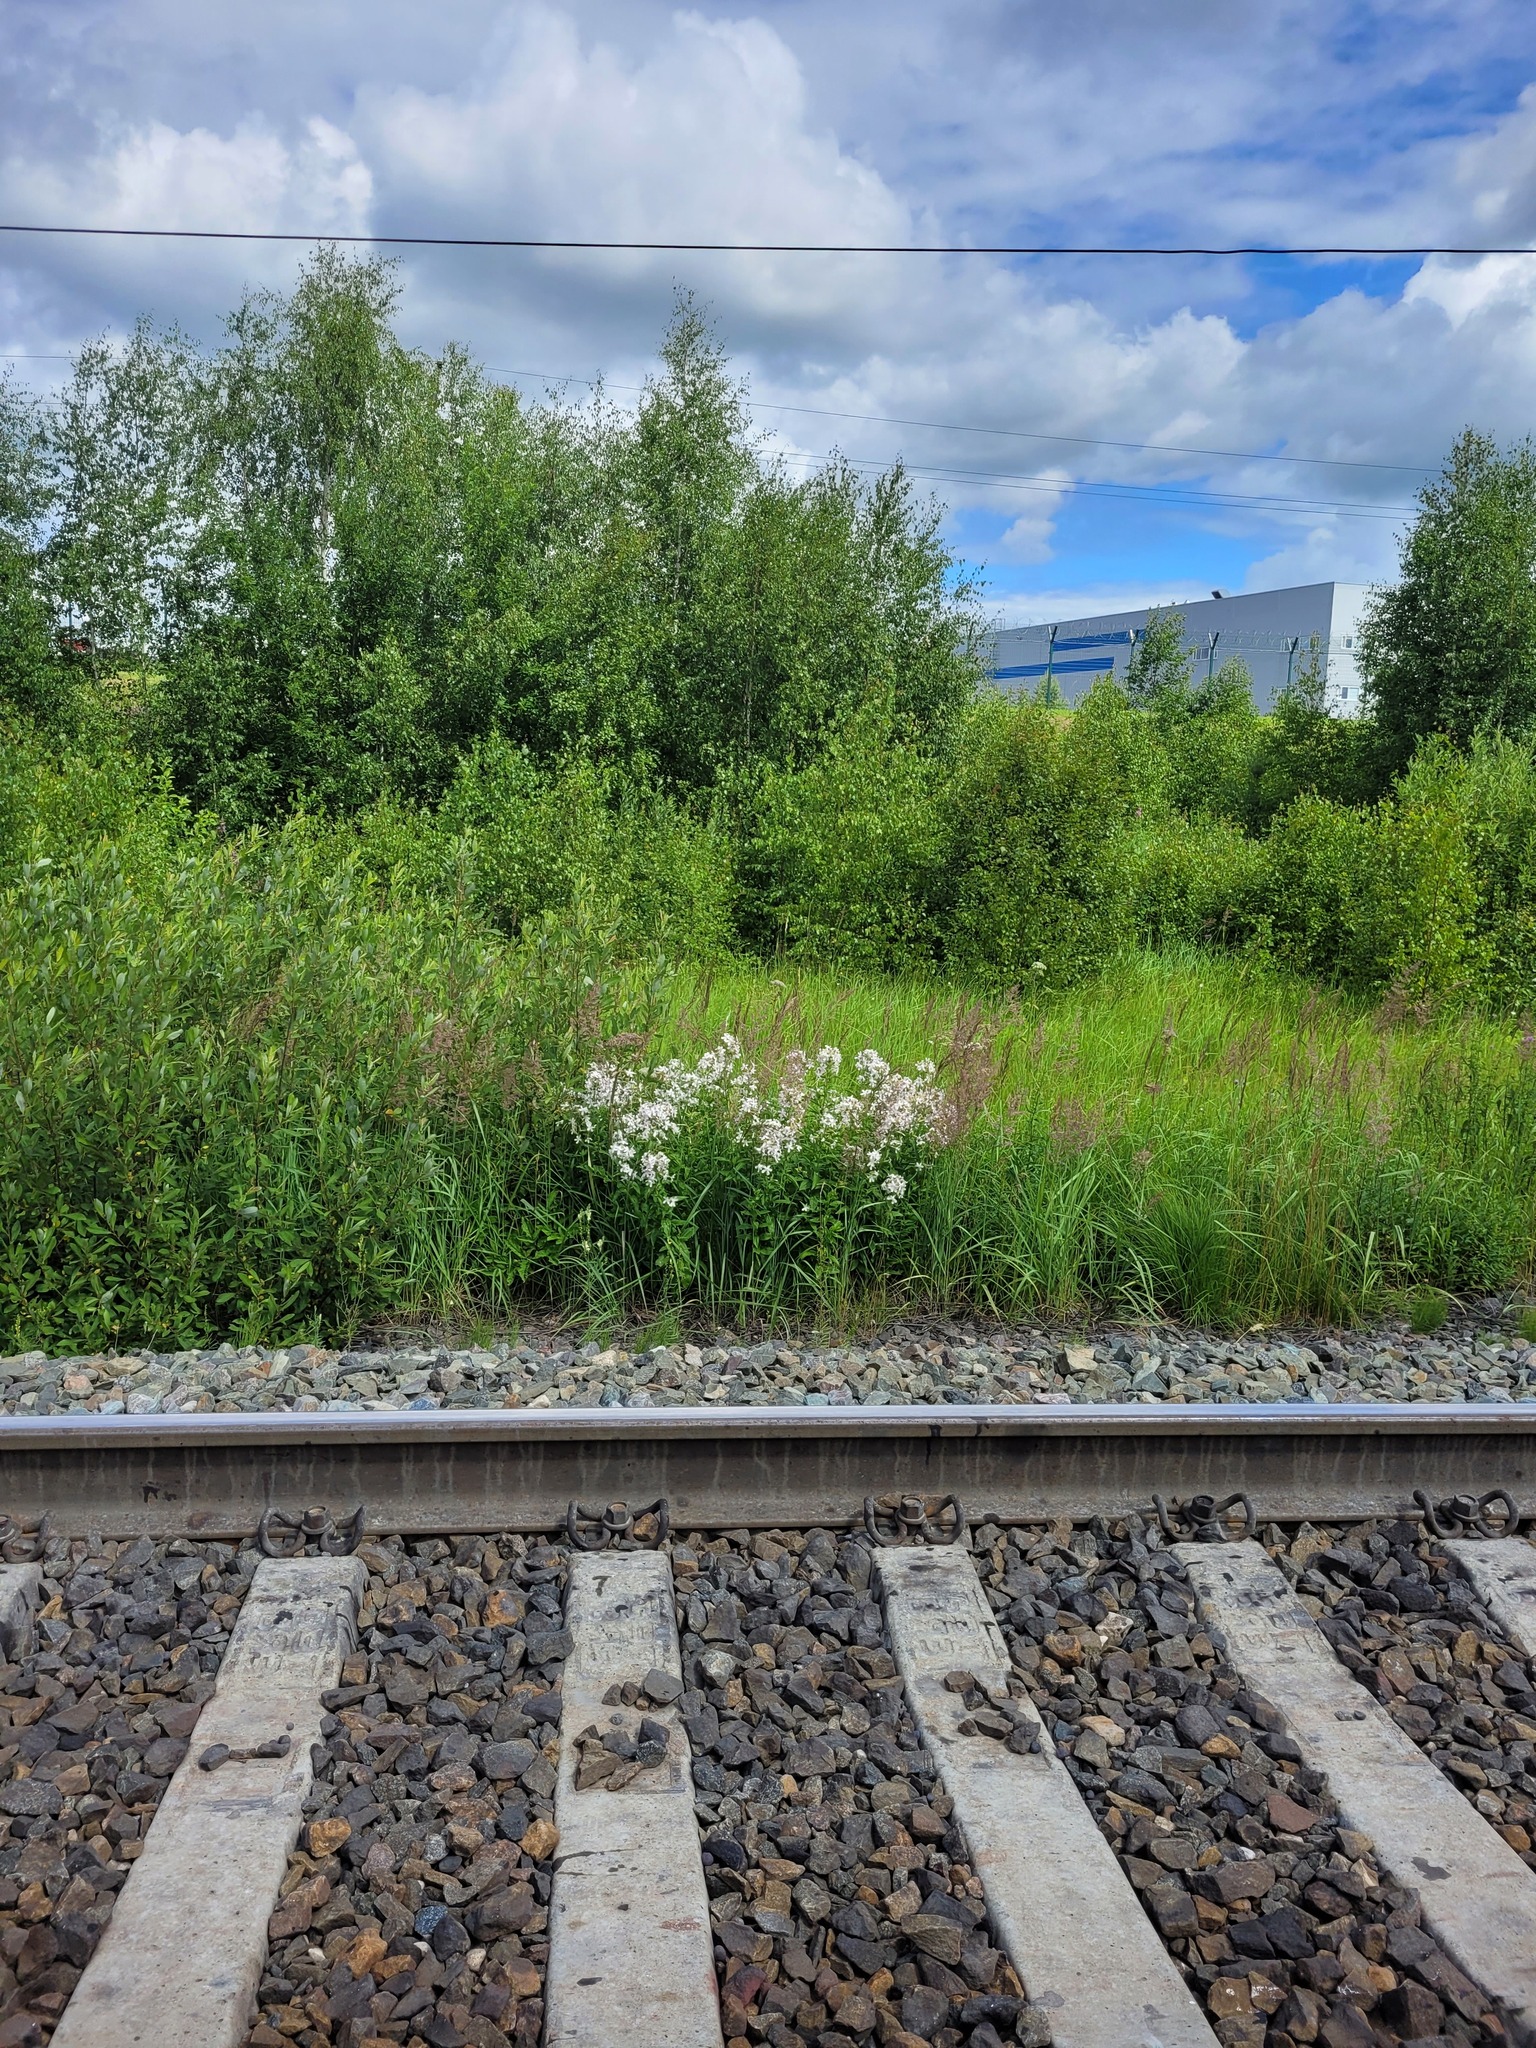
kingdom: Plantae
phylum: Tracheophyta
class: Magnoliopsida
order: Caryophyllales
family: Caryophyllaceae
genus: Saponaria
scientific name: Saponaria officinalis
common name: Soapwort
